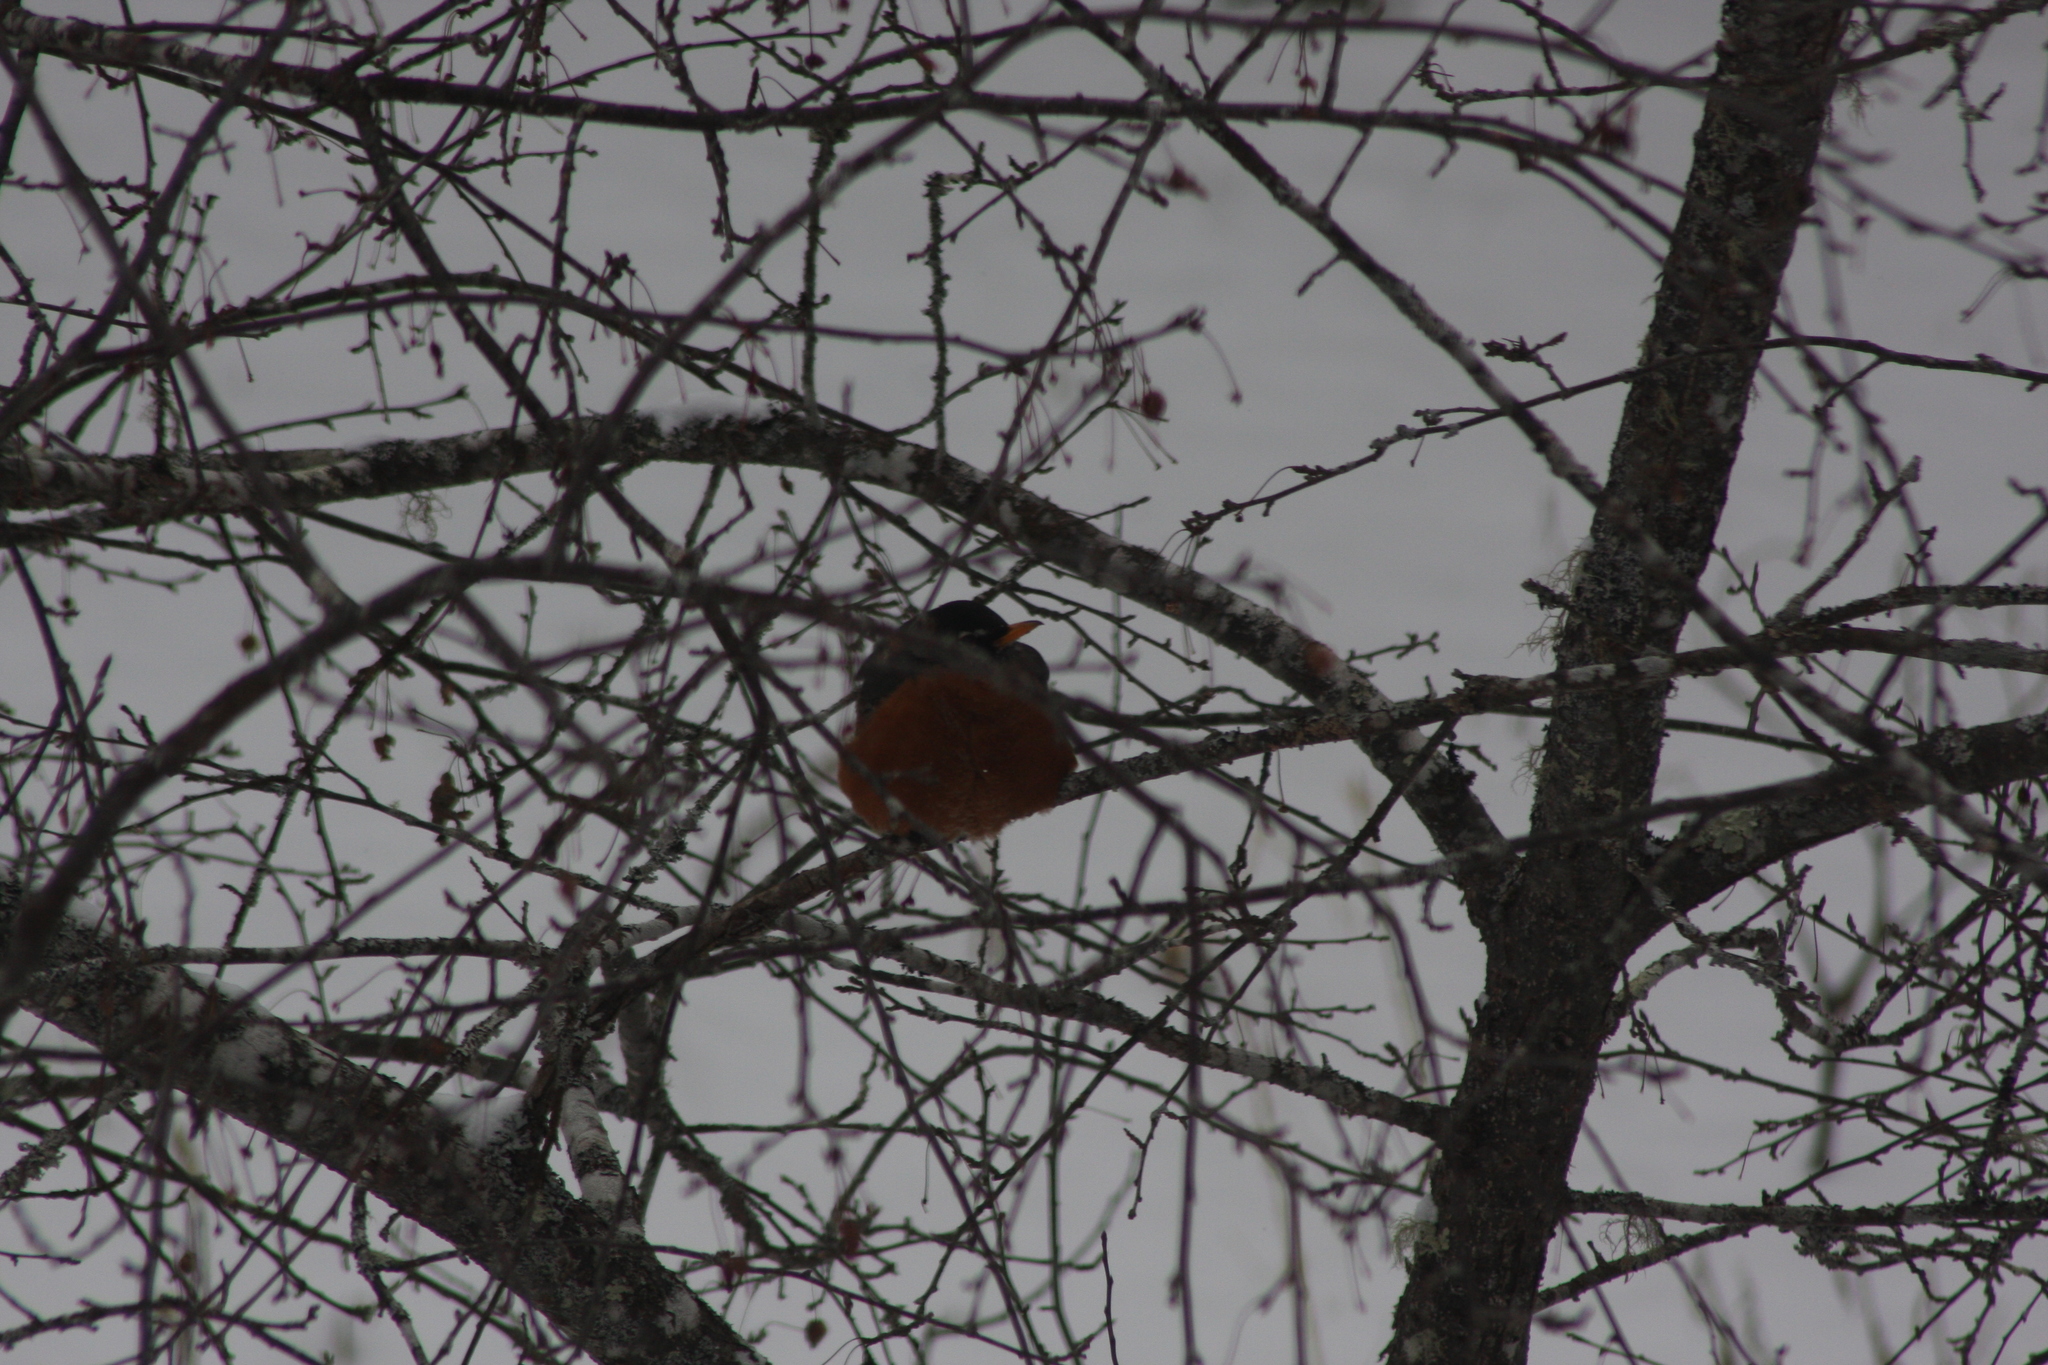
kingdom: Animalia
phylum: Chordata
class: Aves
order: Passeriformes
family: Turdidae
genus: Turdus
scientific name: Turdus migratorius
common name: American robin
